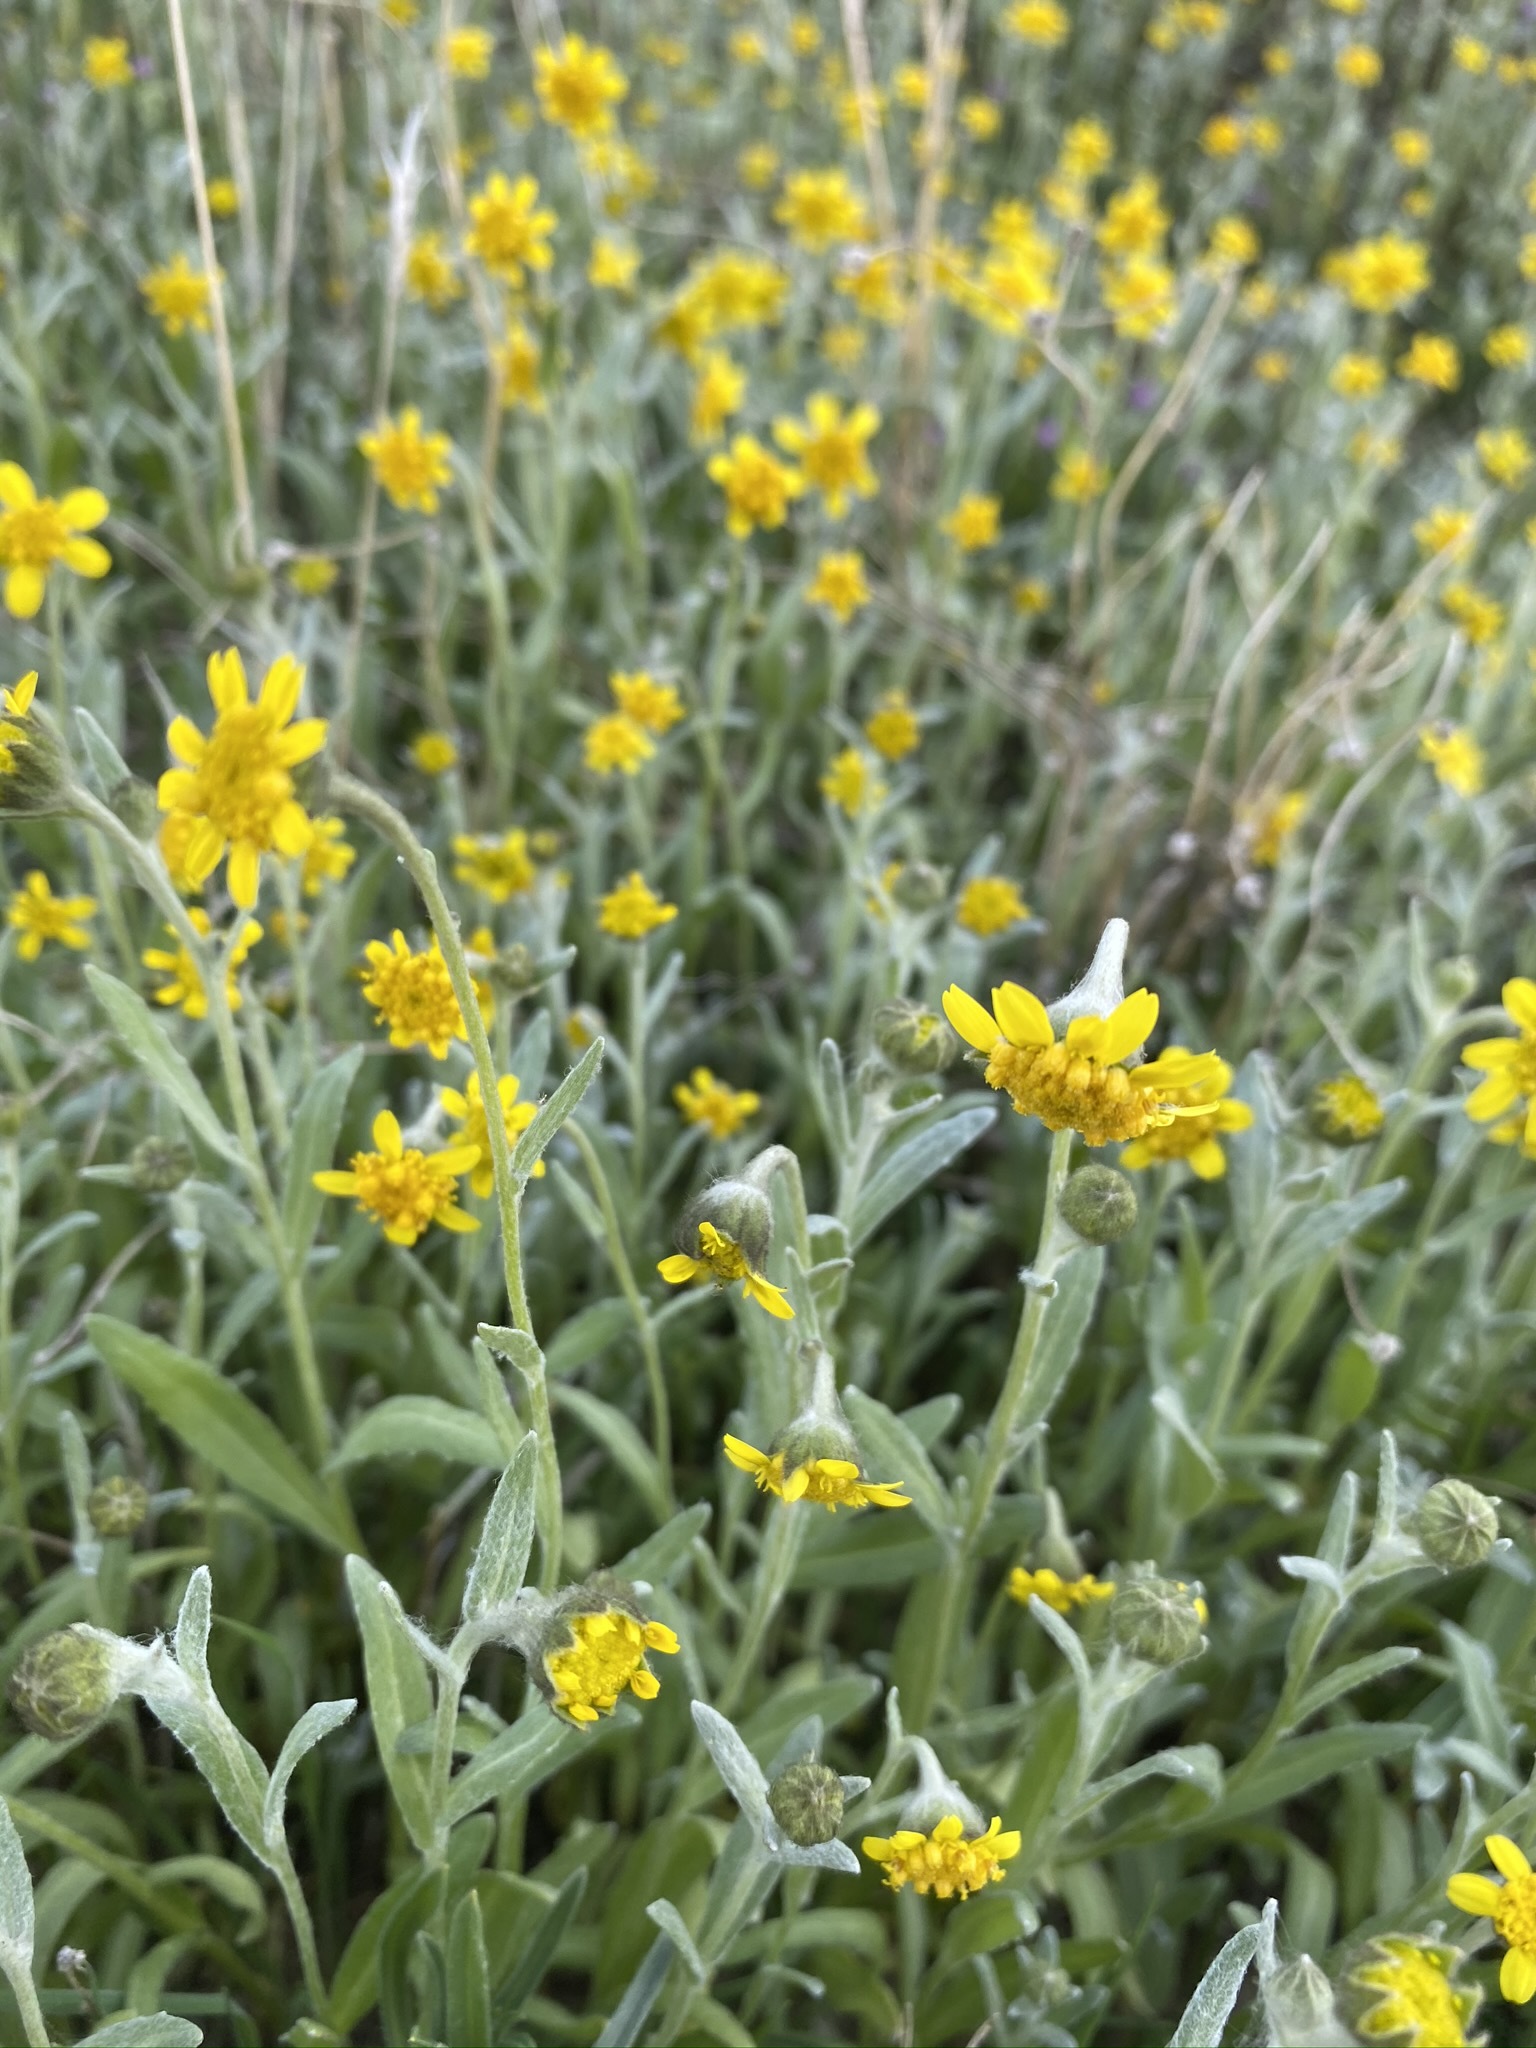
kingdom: Plantae
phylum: Tracheophyta
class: Magnoliopsida
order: Asterales
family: Asteraceae
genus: Monolopia
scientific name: Monolopia stricta
